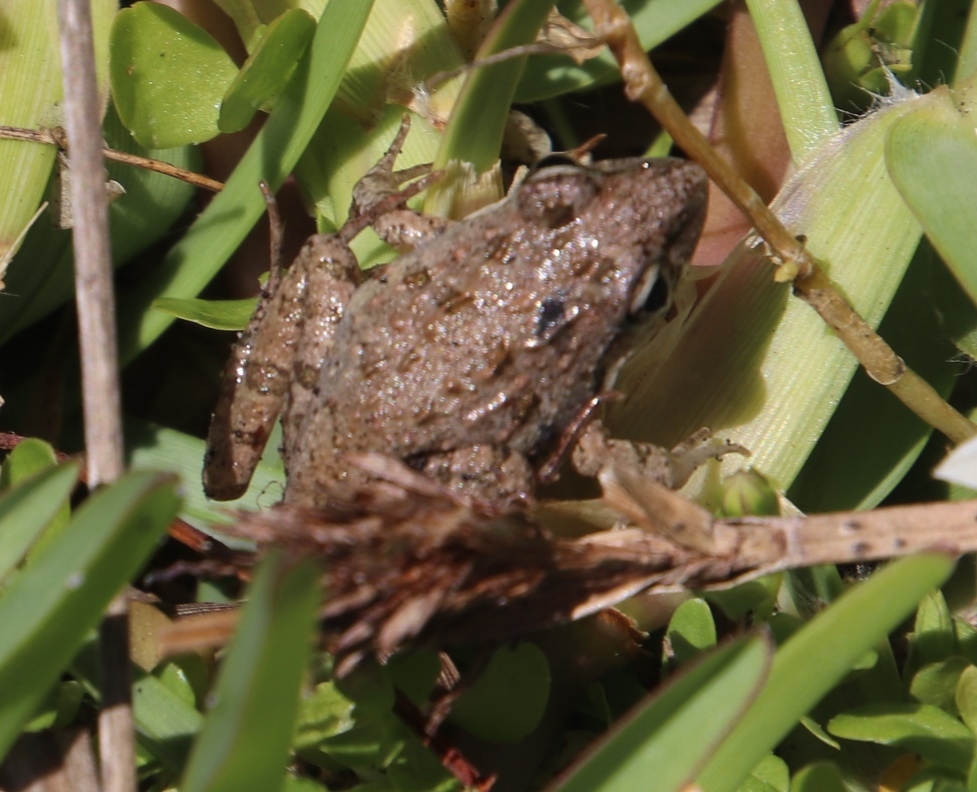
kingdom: Animalia
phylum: Chordata
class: Amphibia
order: Anura
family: Pyxicephalidae
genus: Strongylopus
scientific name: Strongylopus grayii
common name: Gray's stream frog
